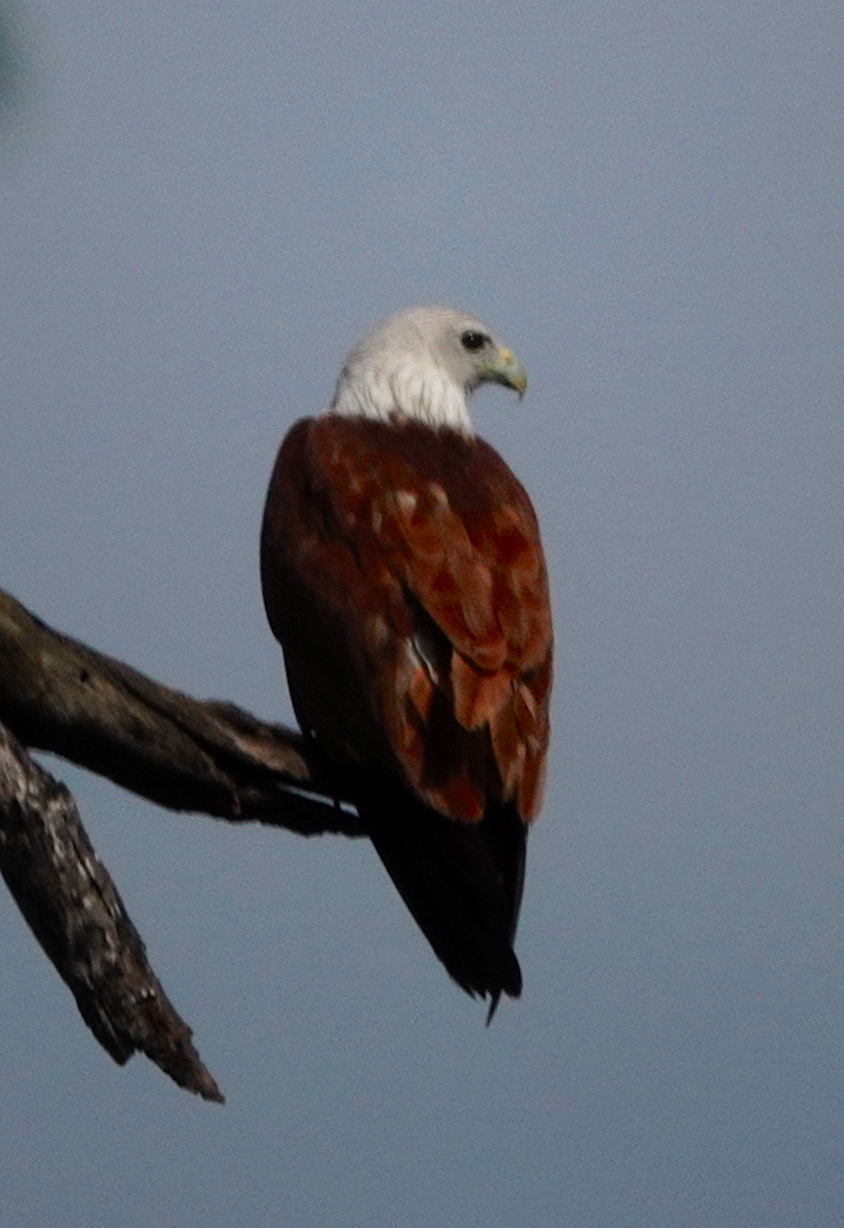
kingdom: Animalia
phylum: Chordata
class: Aves
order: Accipitriformes
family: Accipitridae
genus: Haliastur
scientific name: Haliastur indus
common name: Brahminy kite
